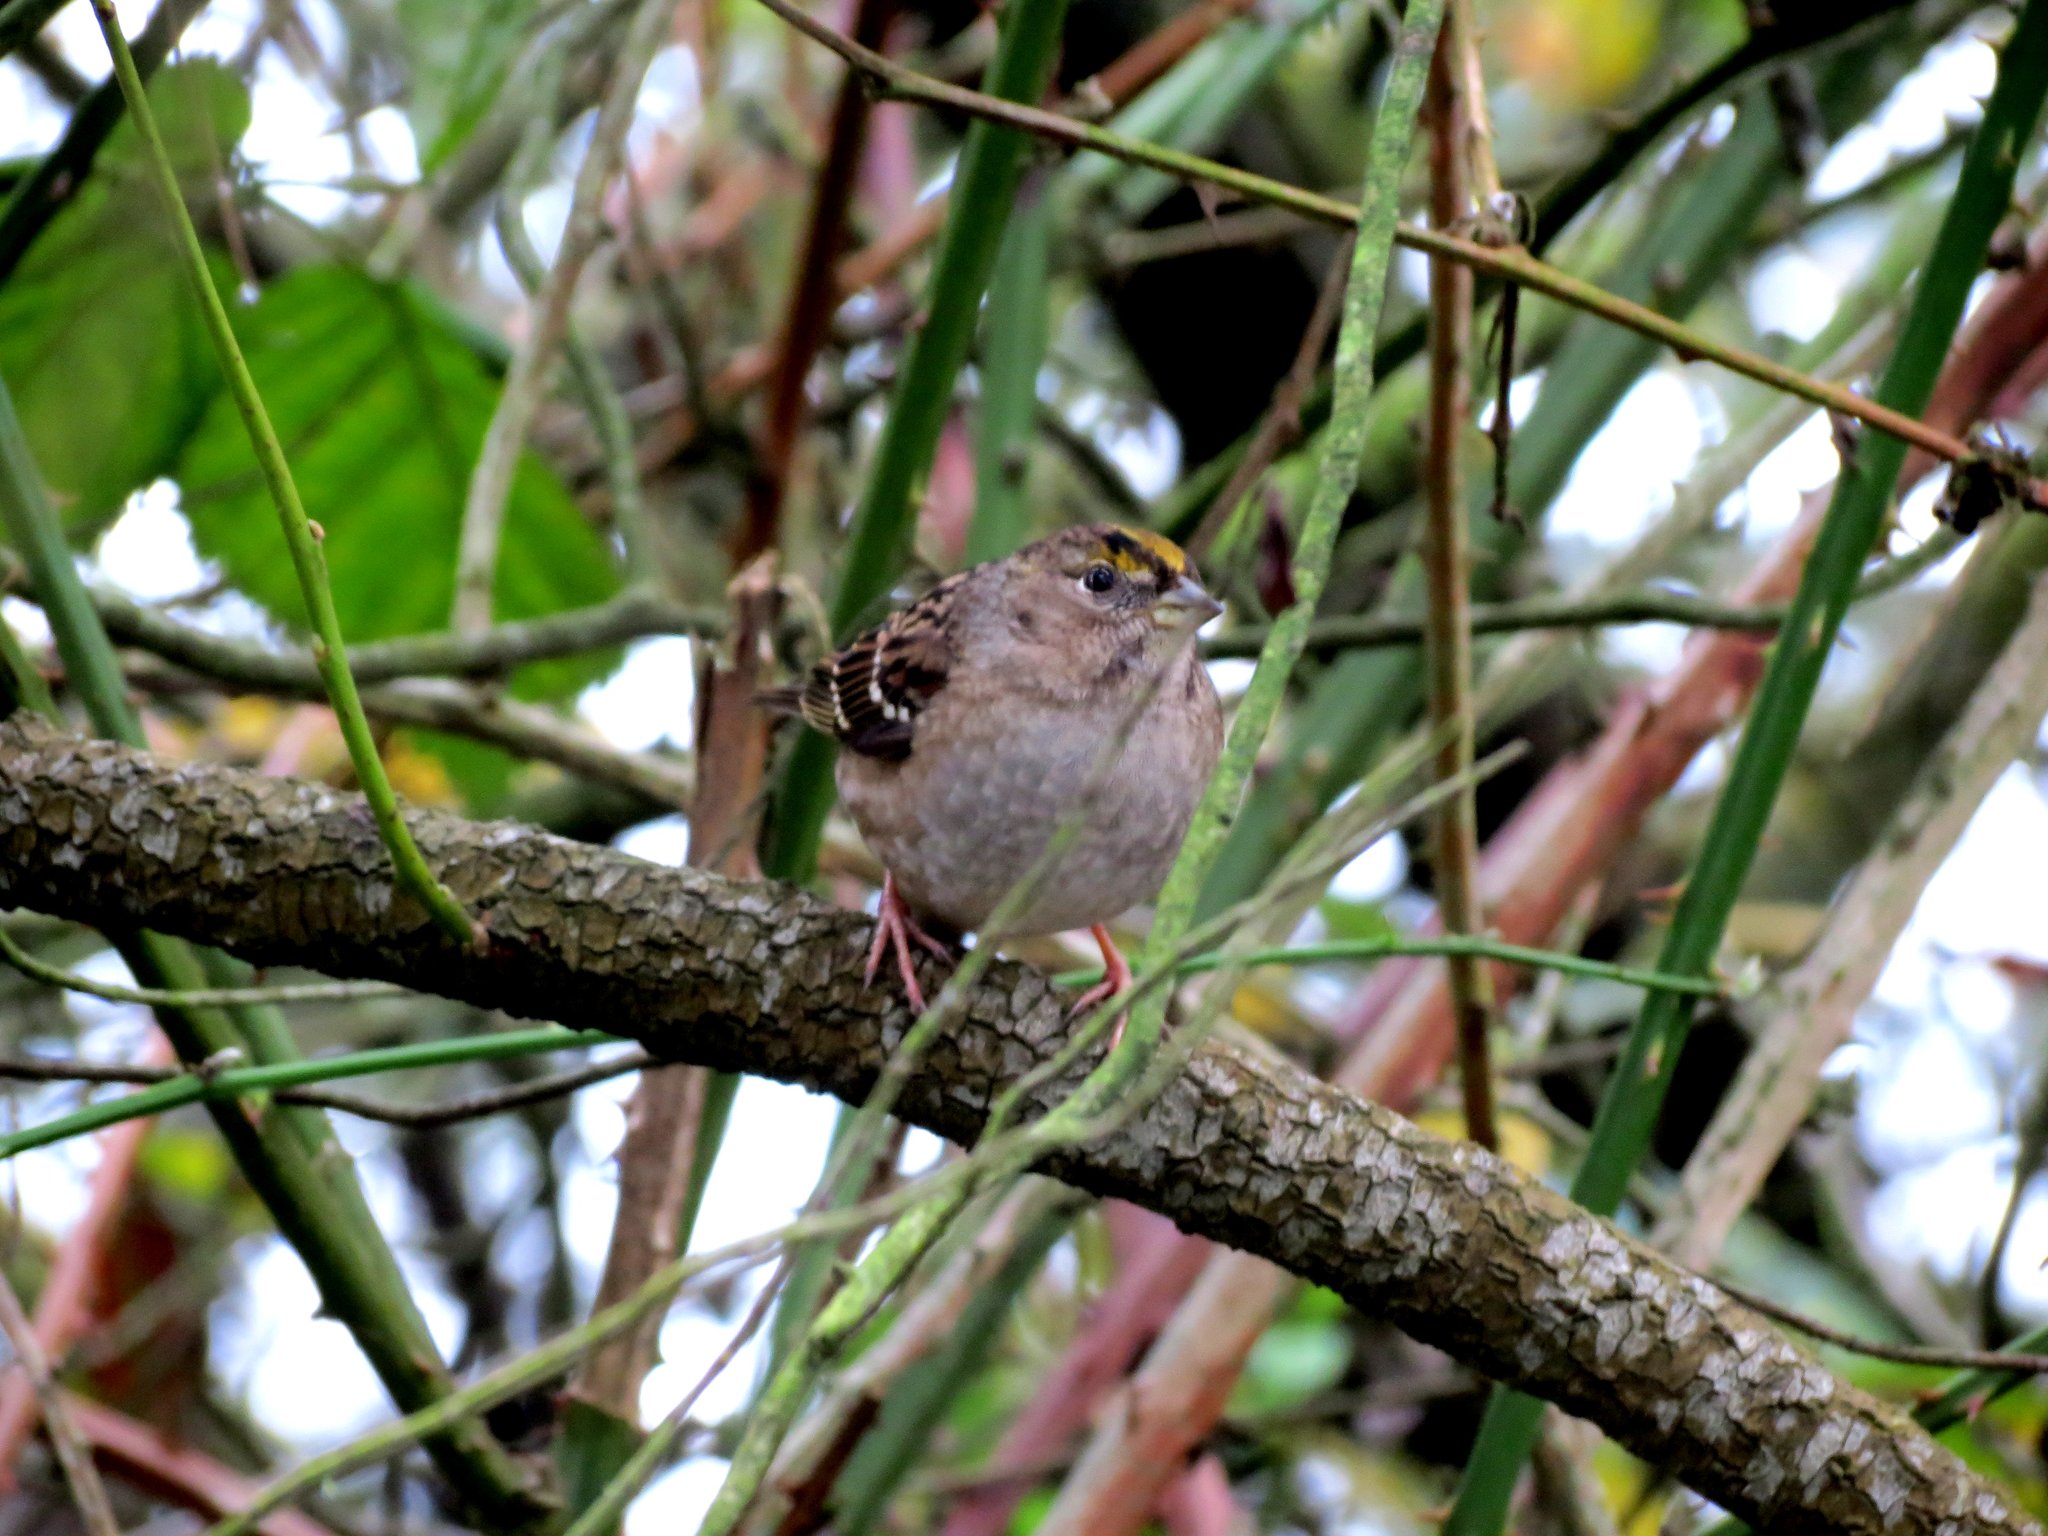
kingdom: Animalia
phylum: Chordata
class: Aves
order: Passeriformes
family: Passerellidae
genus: Zonotrichia
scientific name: Zonotrichia atricapilla
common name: Golden-crowned sparrow
